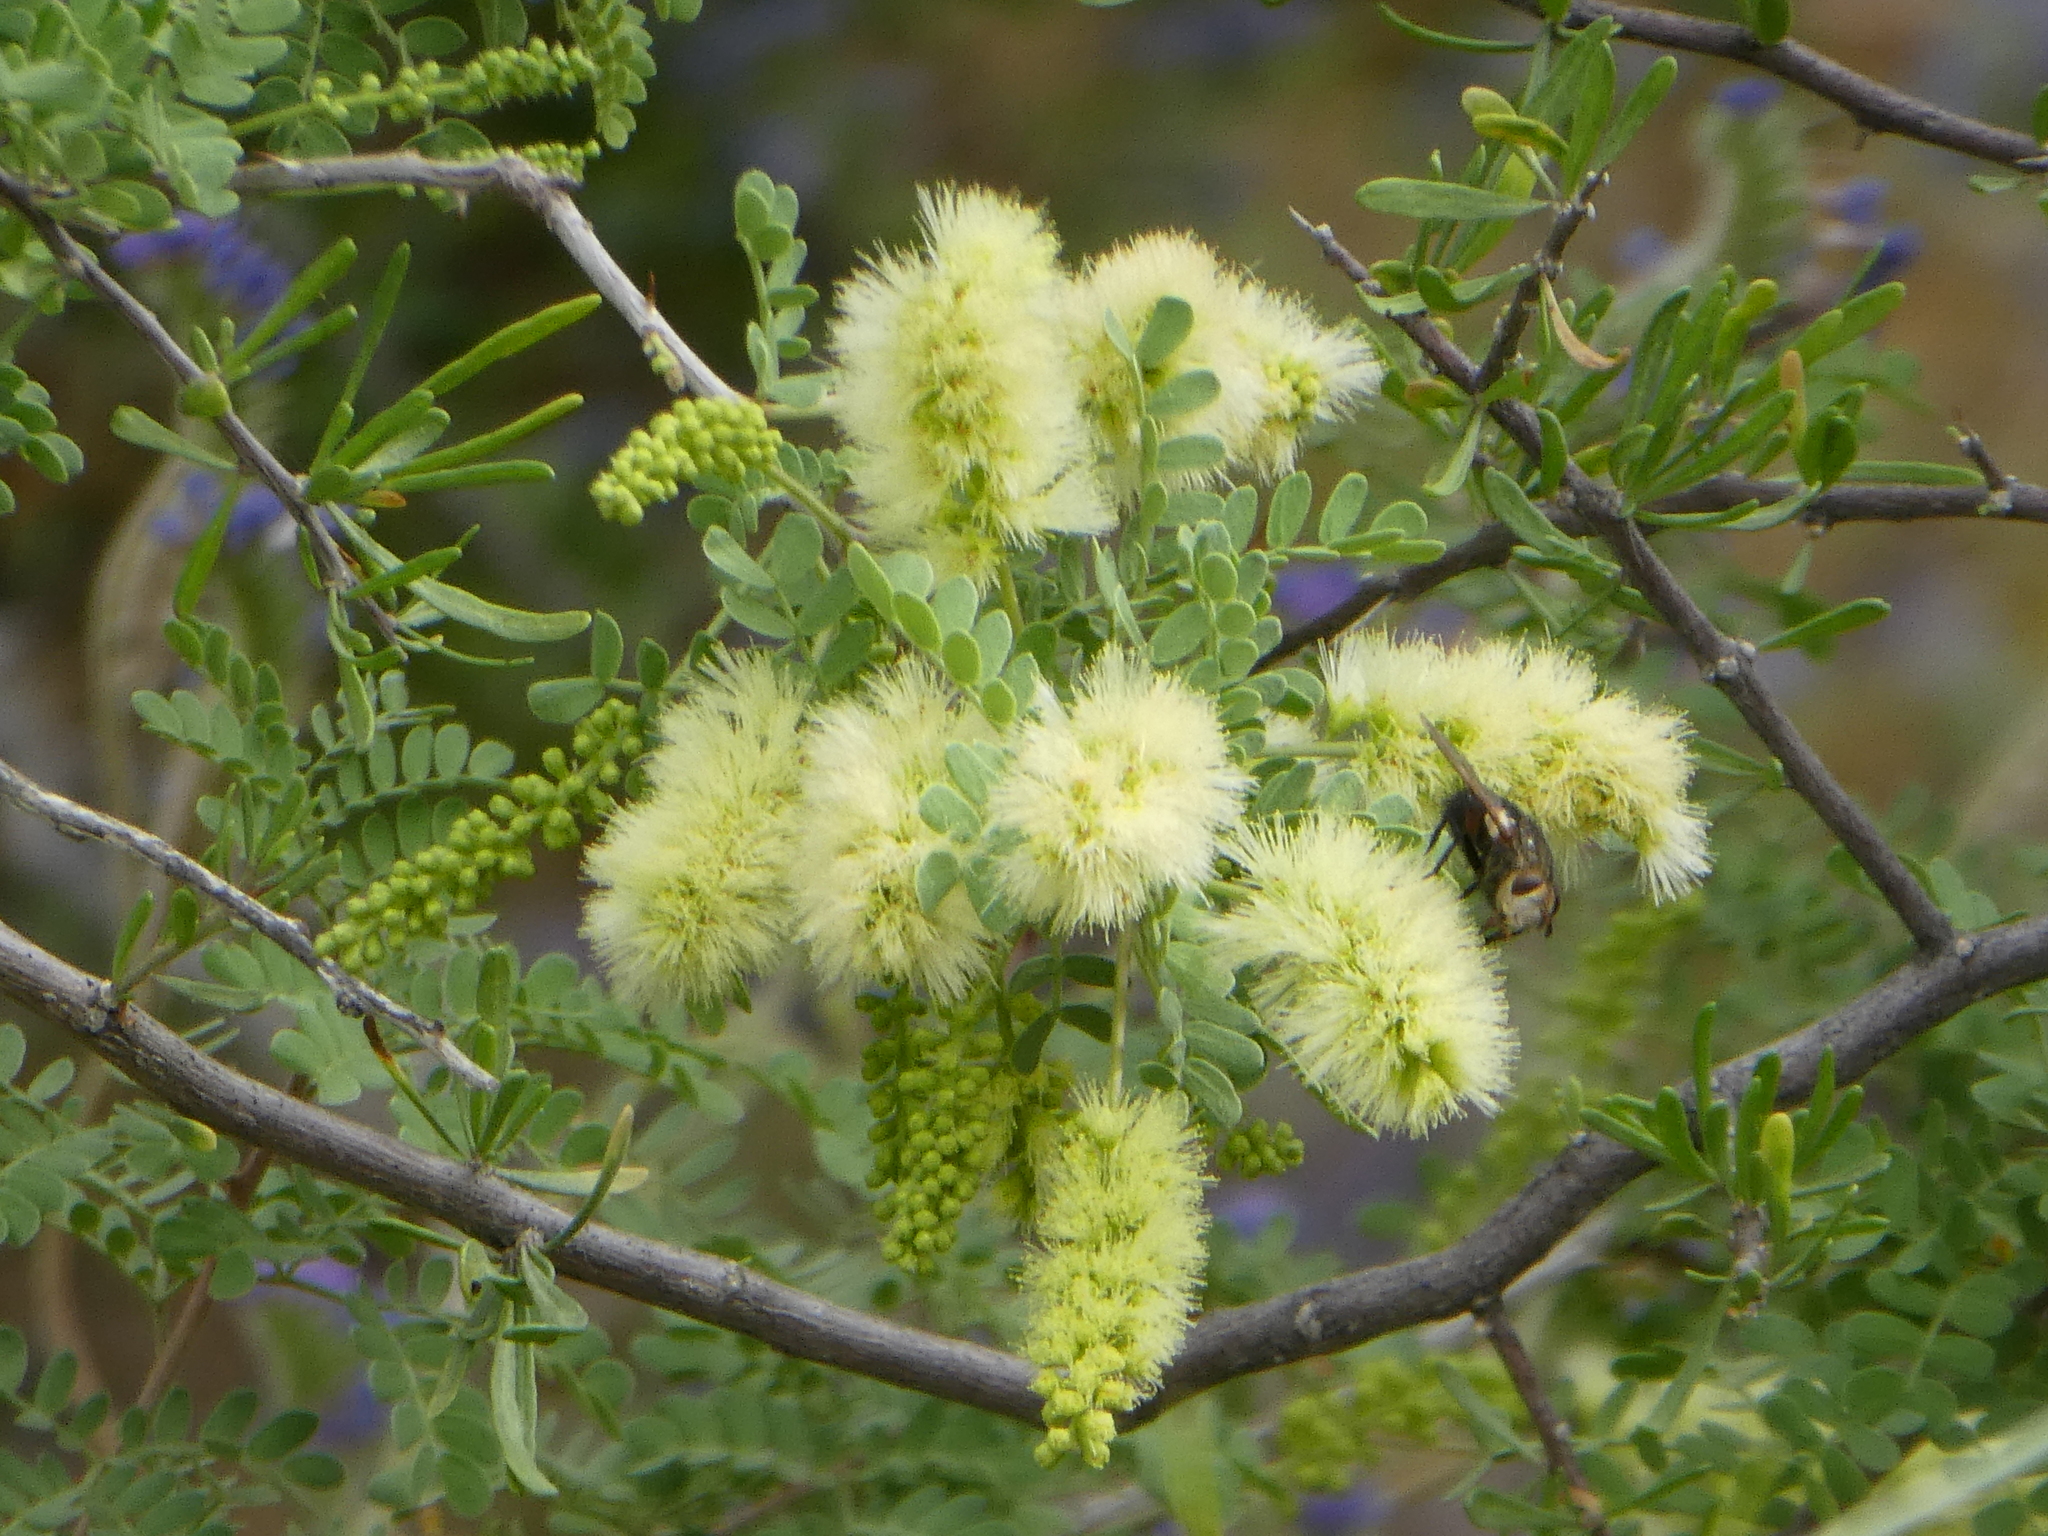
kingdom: Plantae
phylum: Tracheophyta
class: Magnoliopsida
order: Fabales
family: Fabaceae
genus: Senegalia
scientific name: Senegalia greggii
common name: Texas-mimosa
